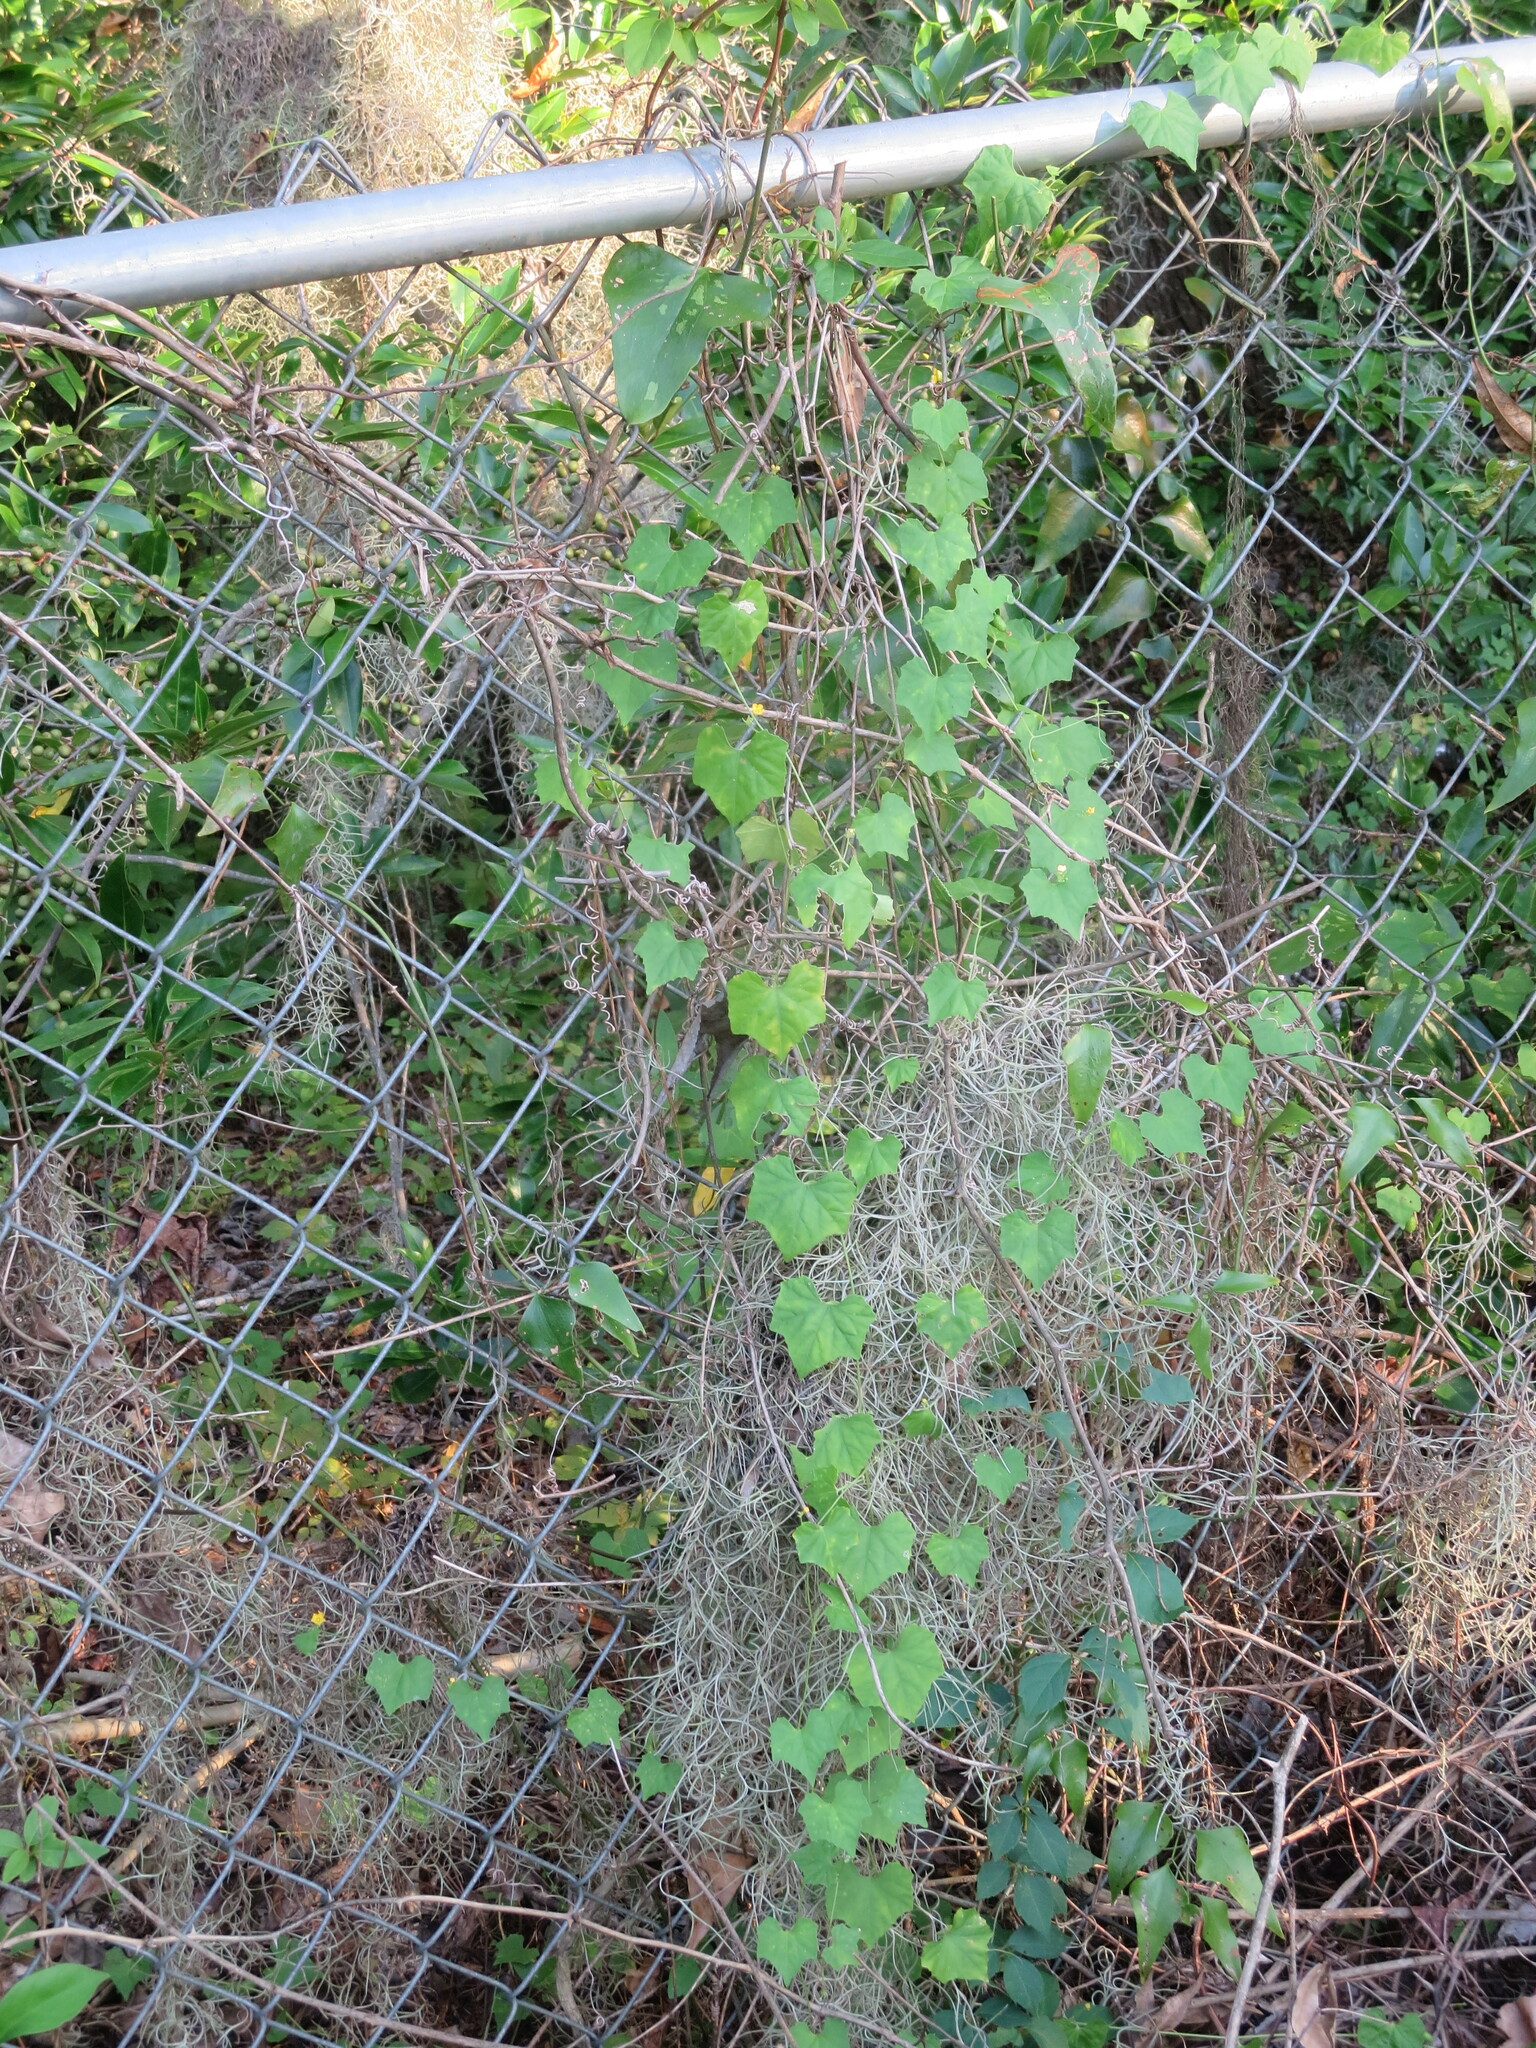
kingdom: Plantae
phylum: Tracheophyta
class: Magnoliopsida
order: Cucurbitales
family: Cucurbitaceae
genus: Melothria
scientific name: Melothria pendula
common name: Creeping-cucumber
